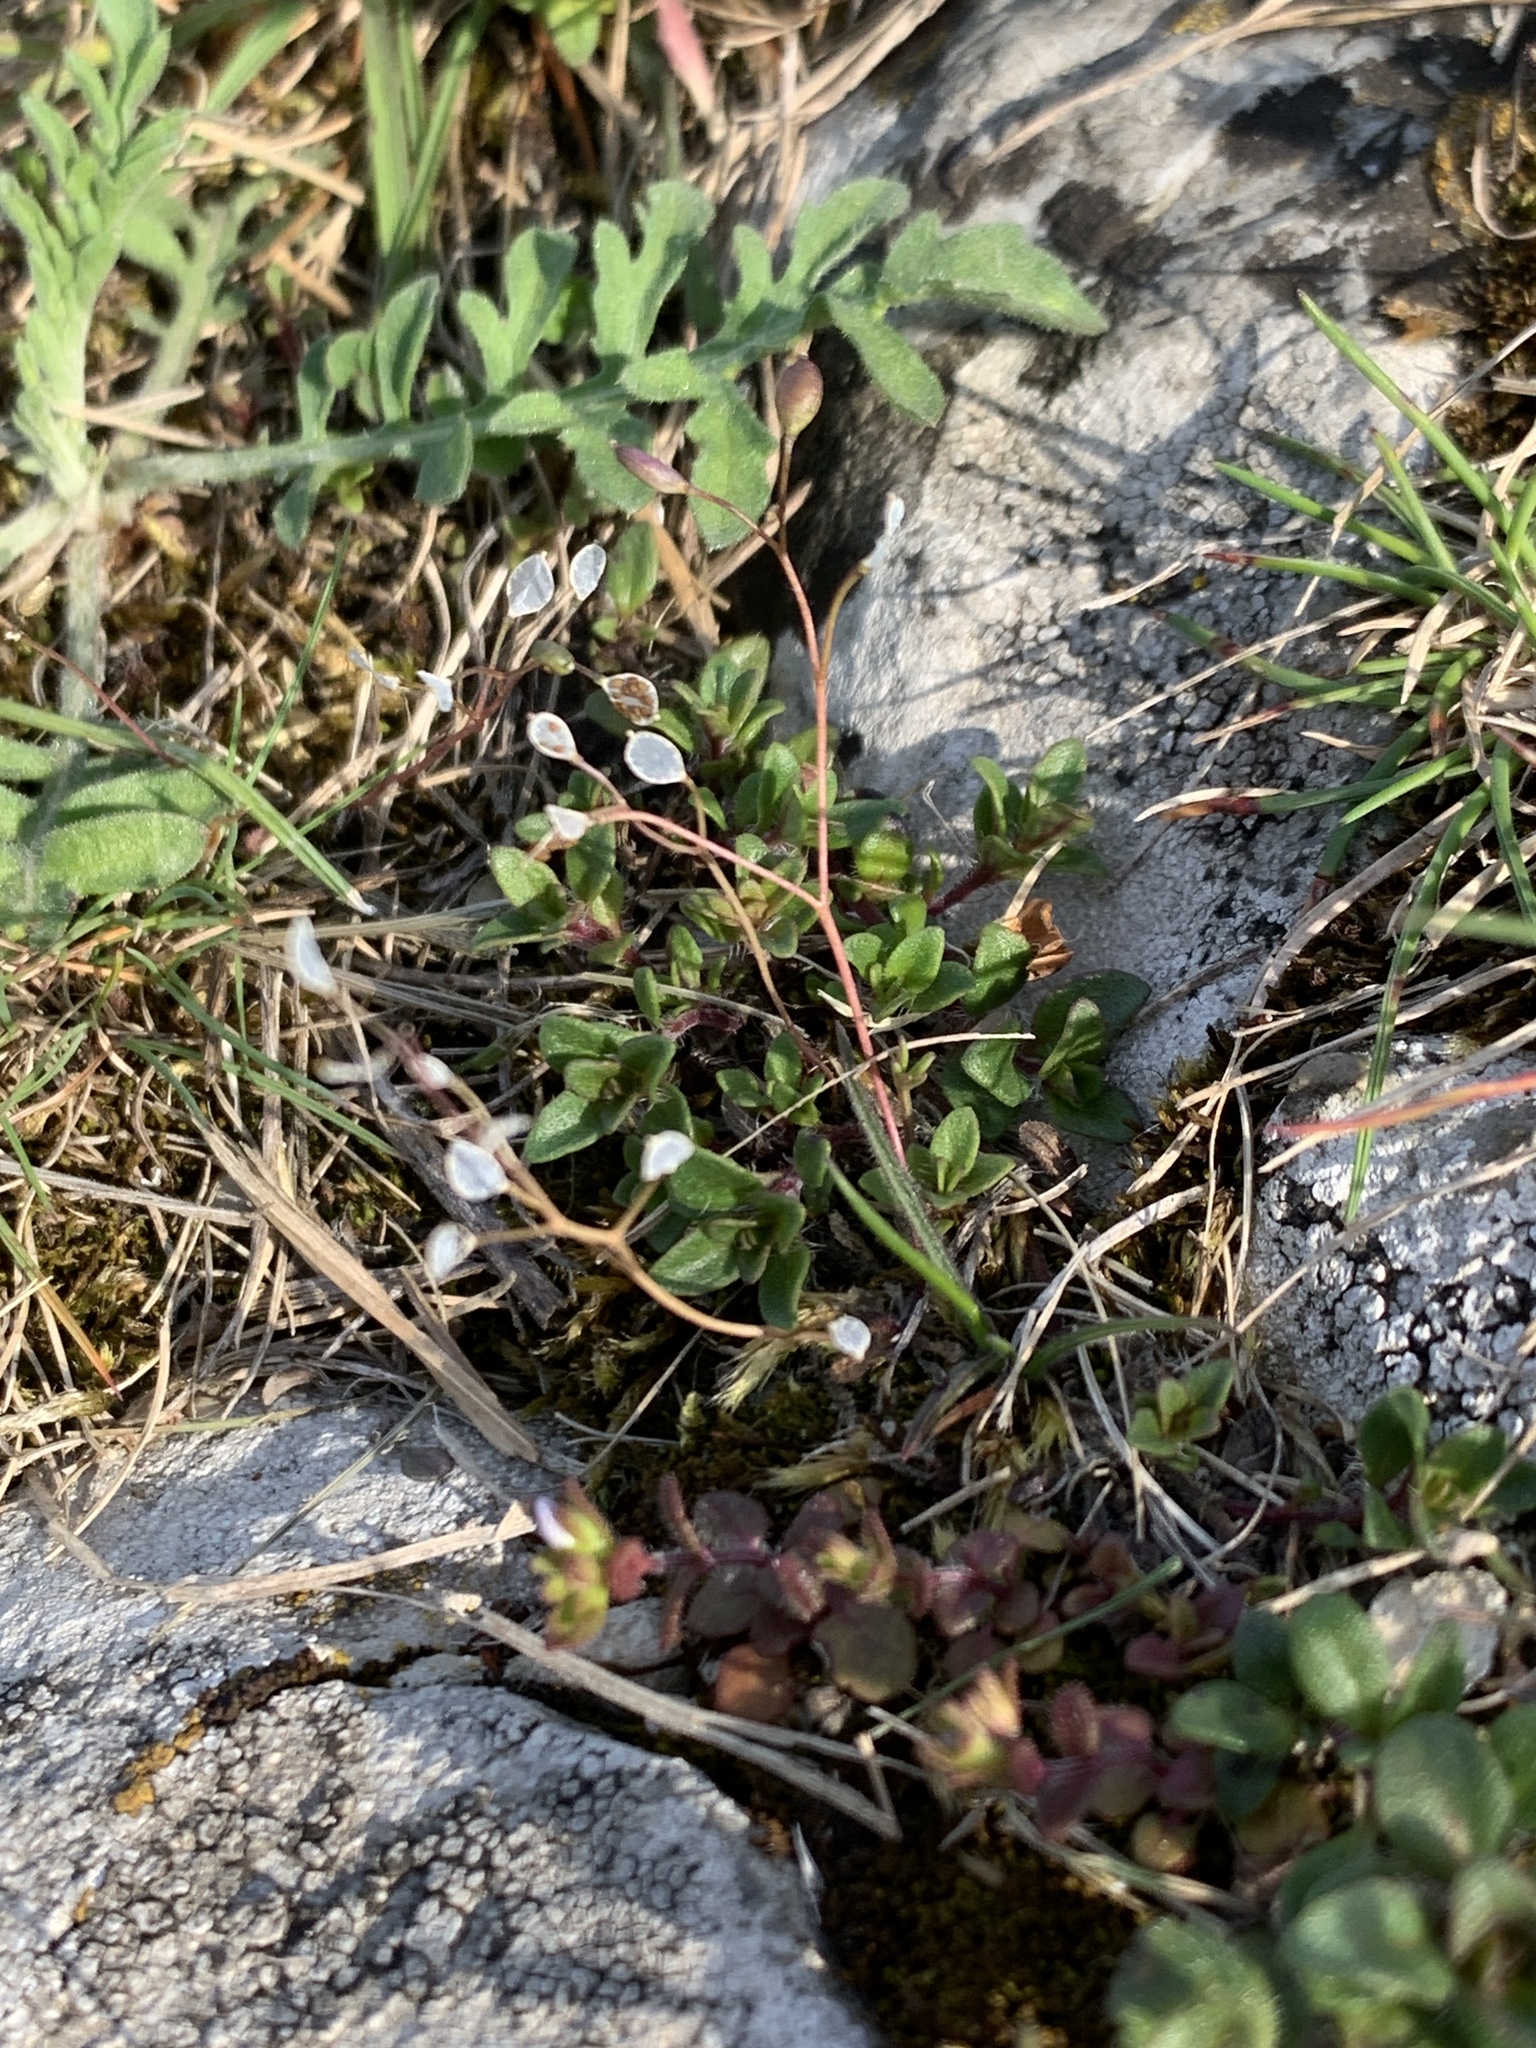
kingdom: Plantae
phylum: Tracheophyta
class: Magnoliopsida
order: Brassicales
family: Brassicaceae
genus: Draba
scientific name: Draba verna
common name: Spring draba
